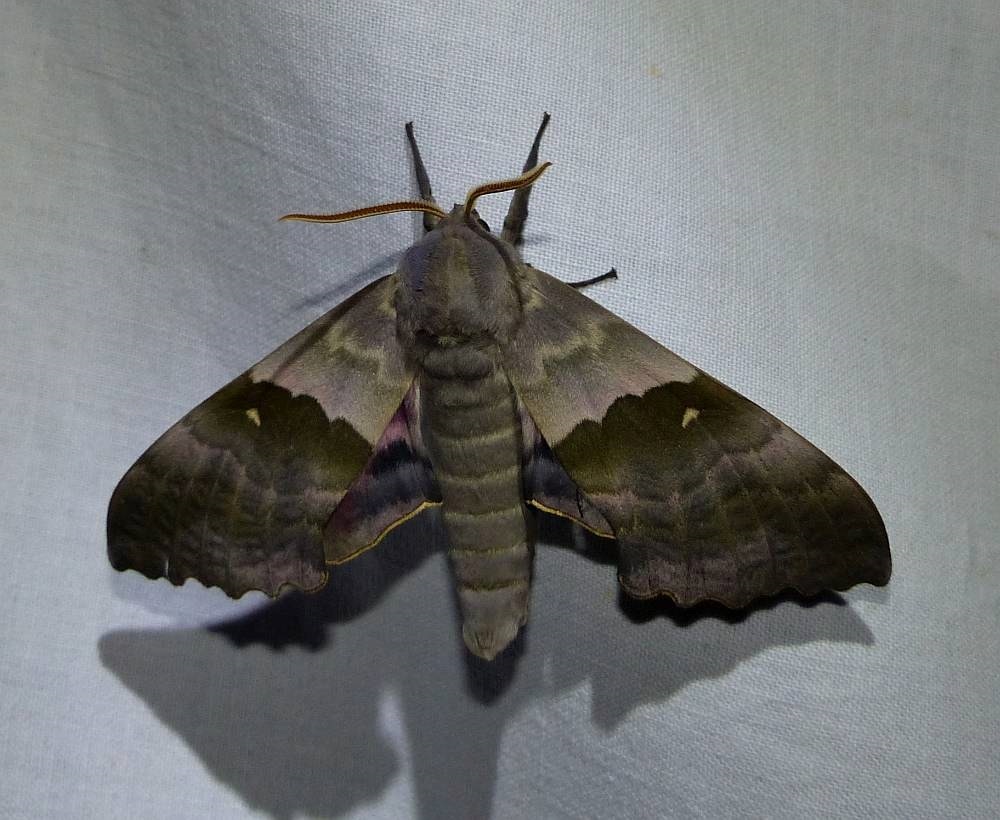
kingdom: Animalia
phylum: Arthropoda
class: Insecta
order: Lepidoptera
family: Sphingidae
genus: Pachysphinx
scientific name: Pachysphinx modesta
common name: Big poplar sphinx
